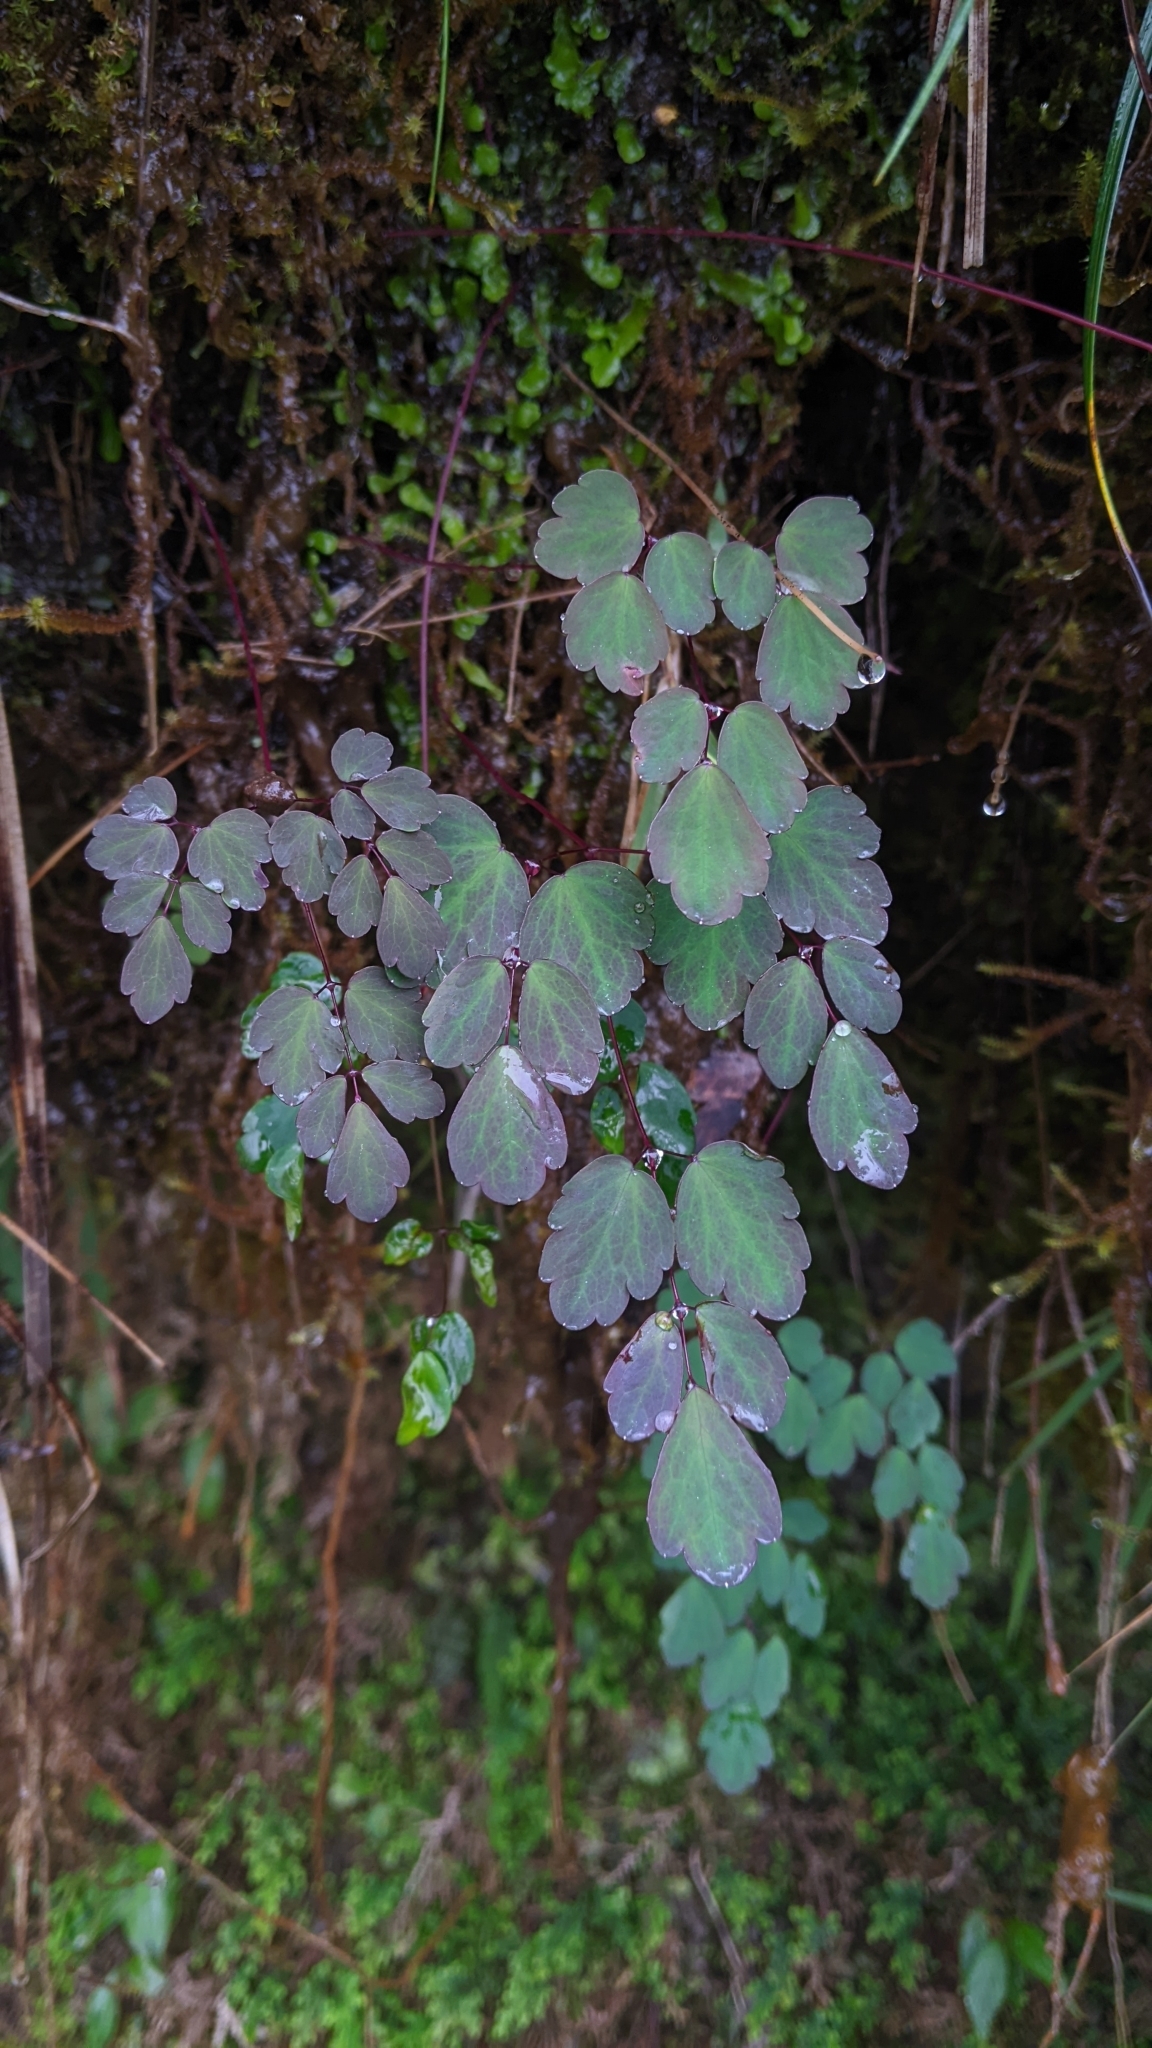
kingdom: Plantae
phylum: Tracheophyta
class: Magnoliopsida
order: Ranunculales
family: Ranunculaceae
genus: Thalictrum
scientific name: Thalictrum urbaini
